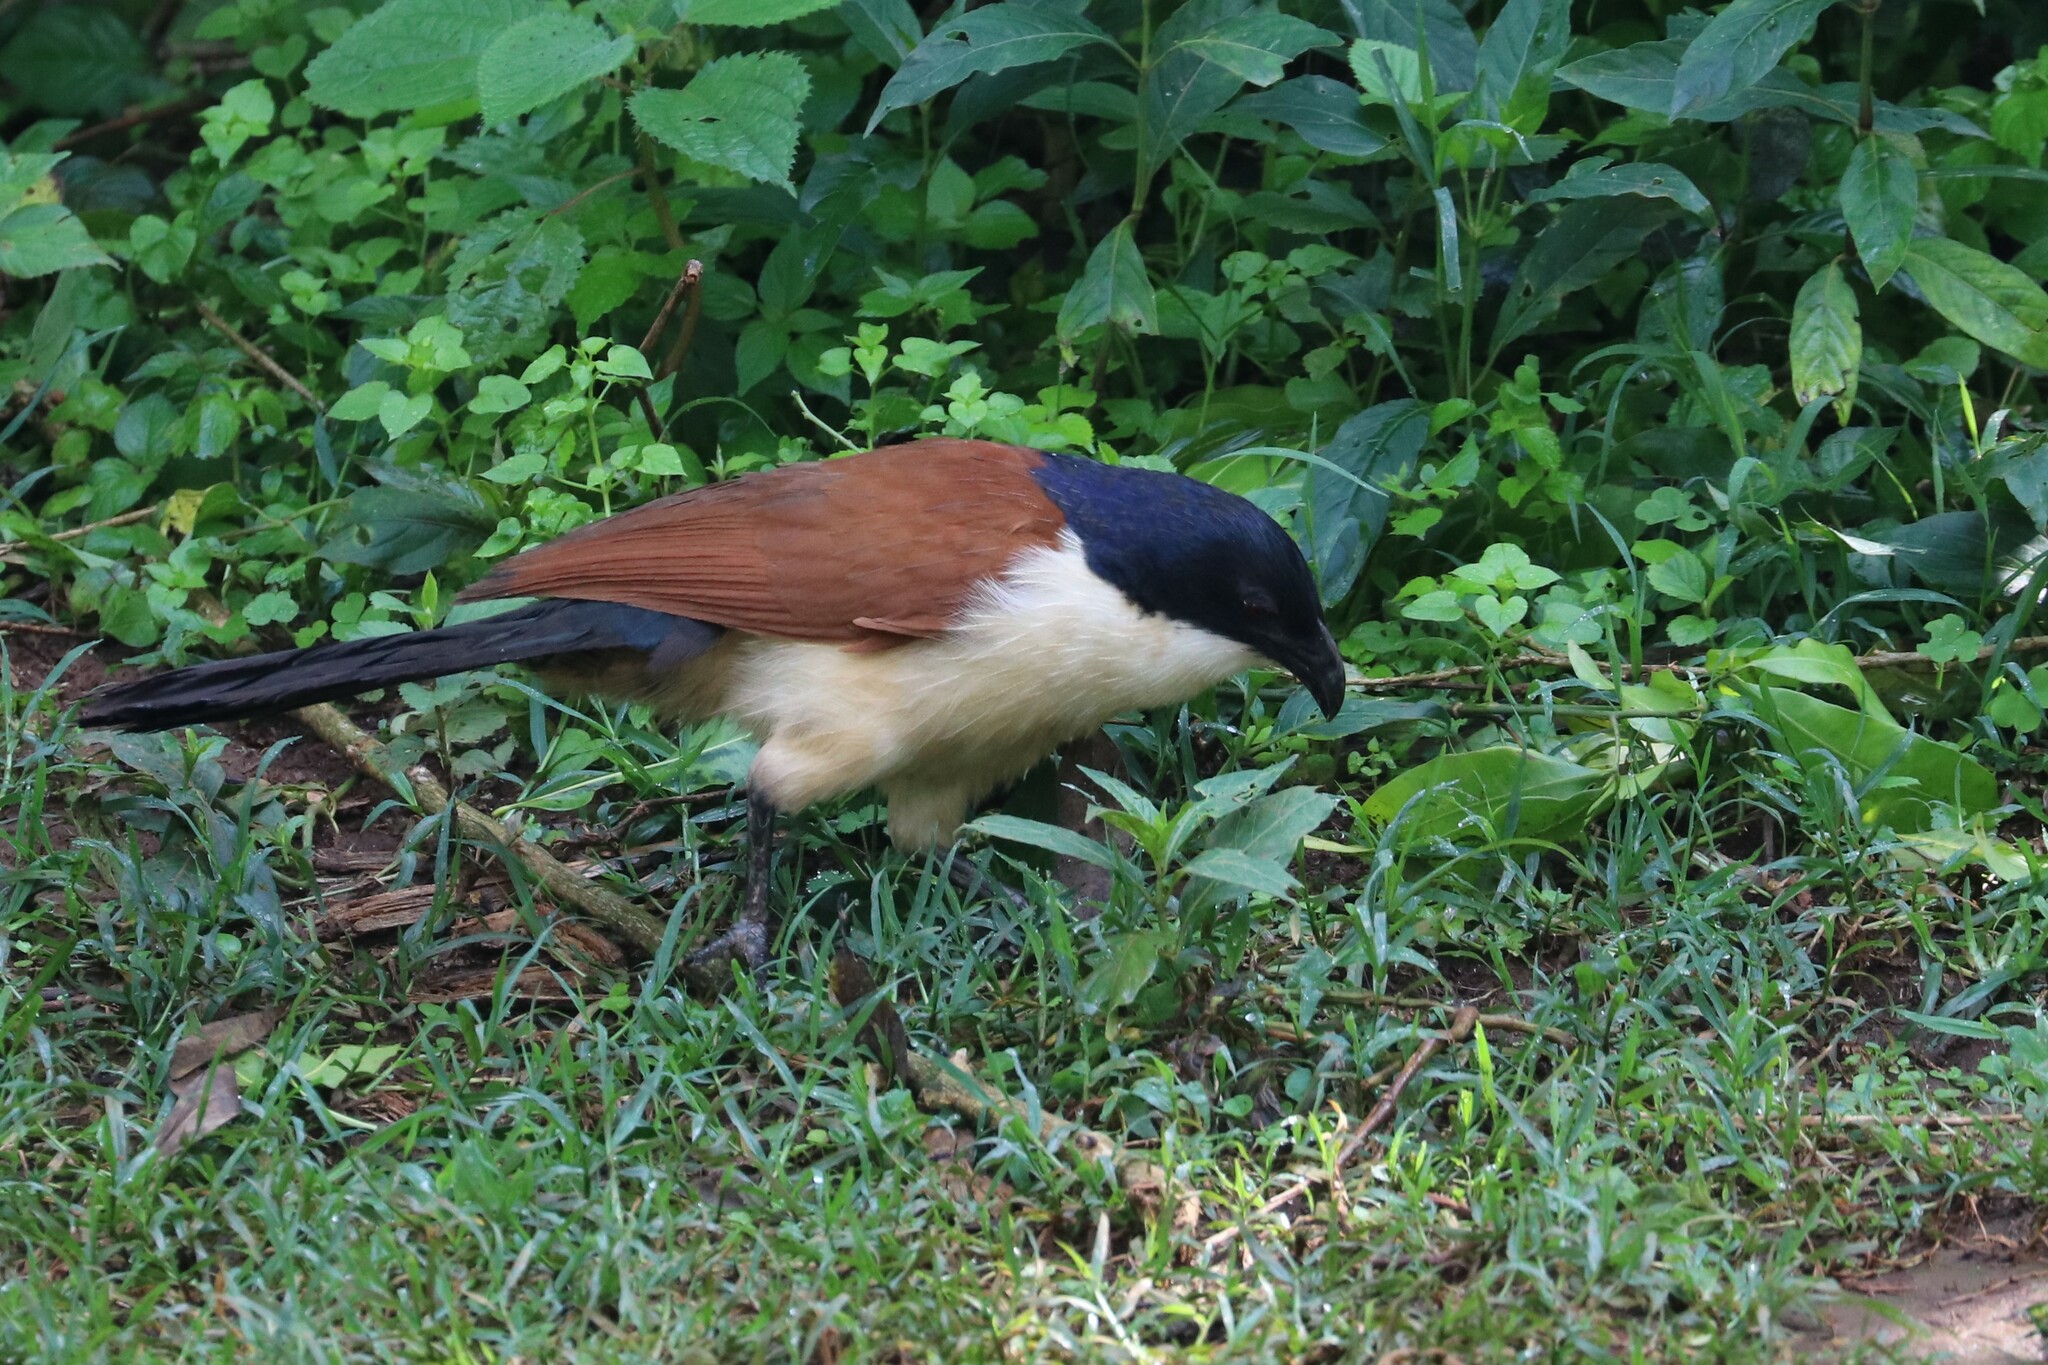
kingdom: Animalia
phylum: Chordata
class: Aves
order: Cuculiformes
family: Cuculidae
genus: Centropus
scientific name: Centropus monachus
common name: Blue-headed coucal
